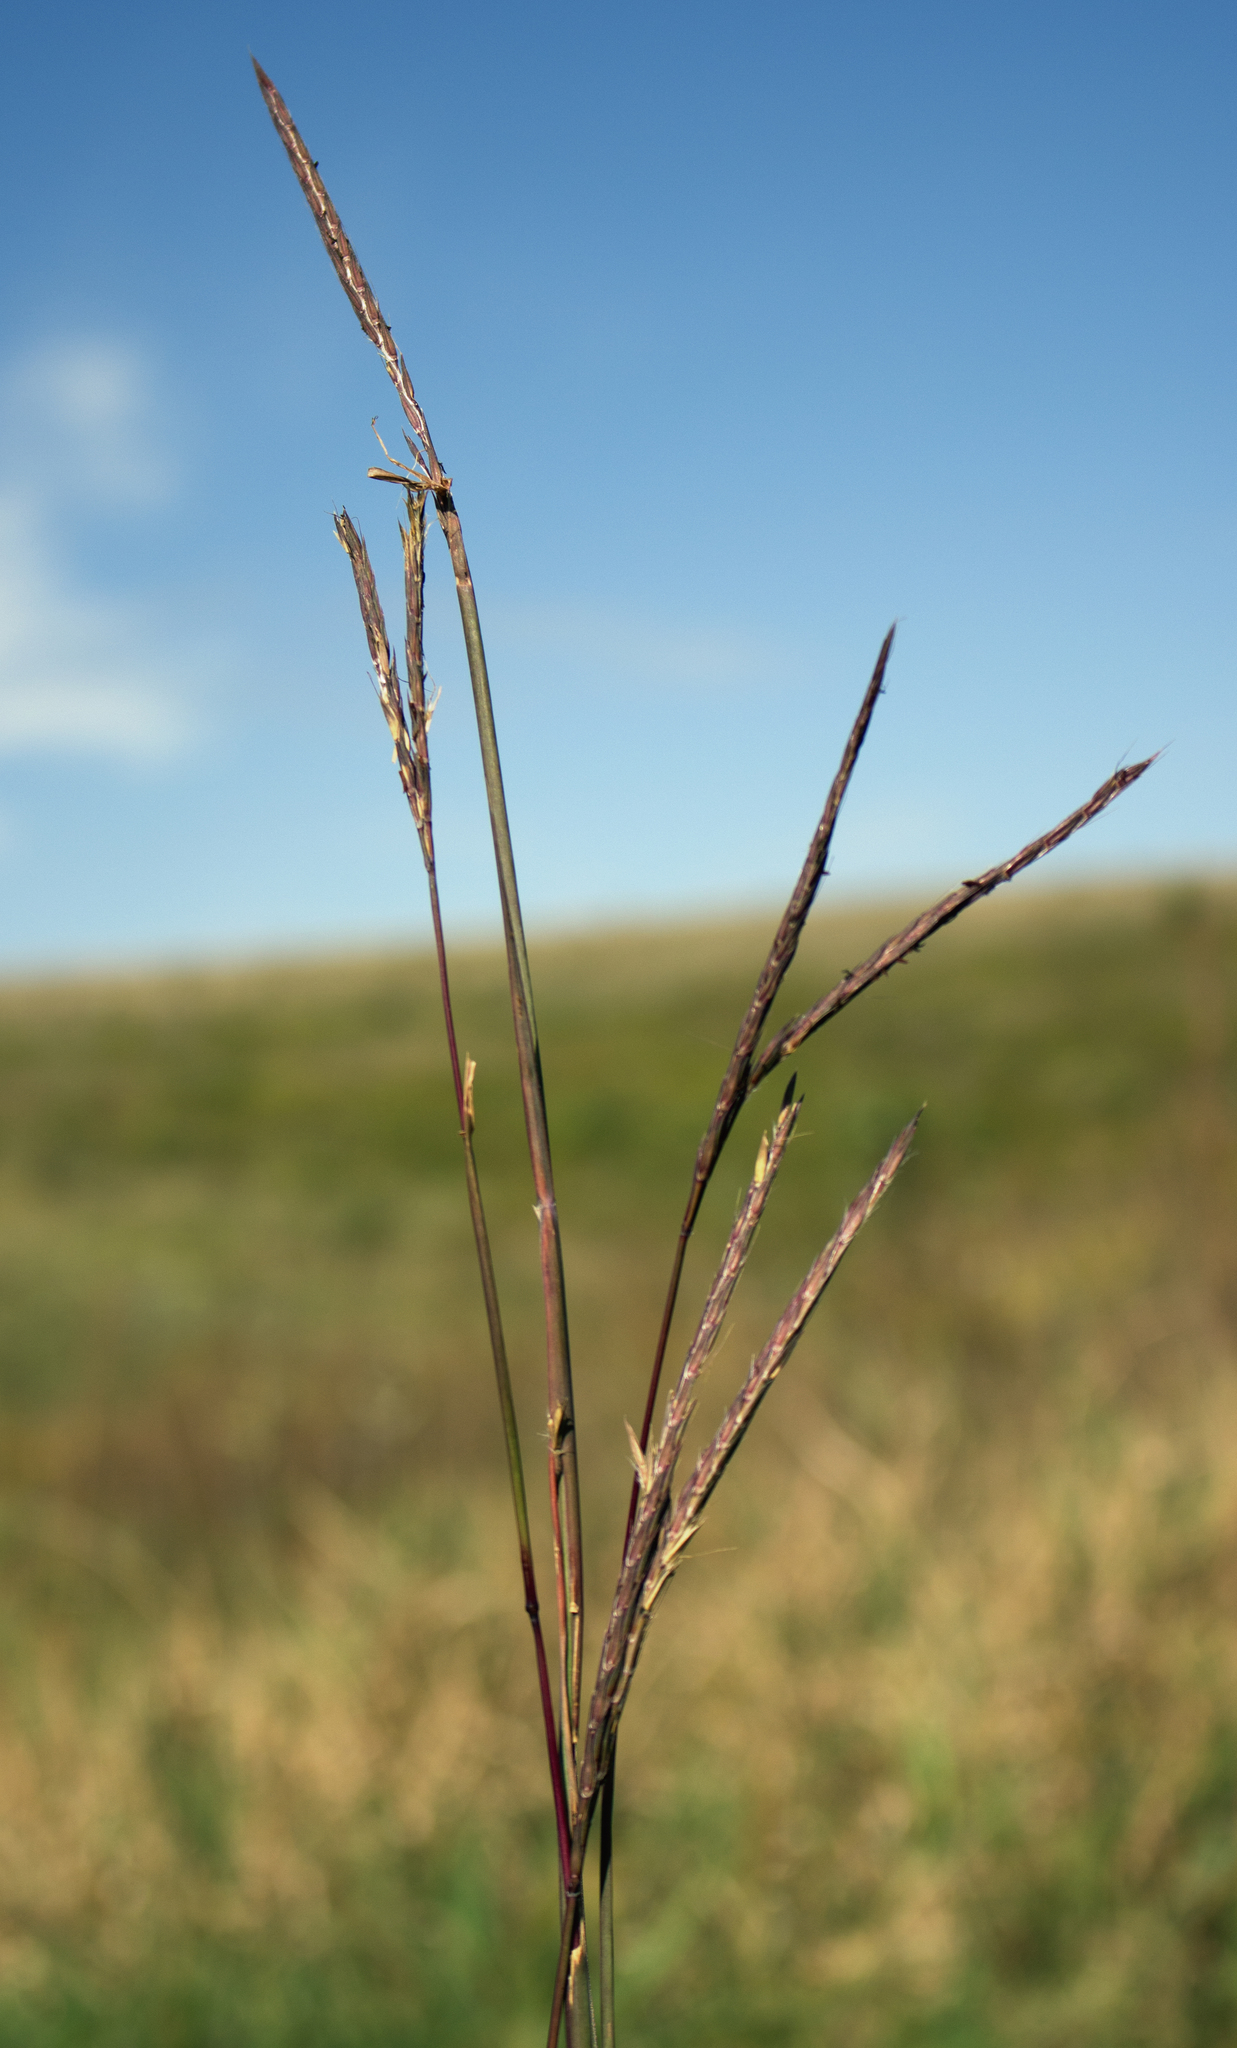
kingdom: Plantae
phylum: Tracheophyta
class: Liliopsida
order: Poales
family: Poaceae
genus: Andropogon
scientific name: Andropogon gerardi
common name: Big bluestem
